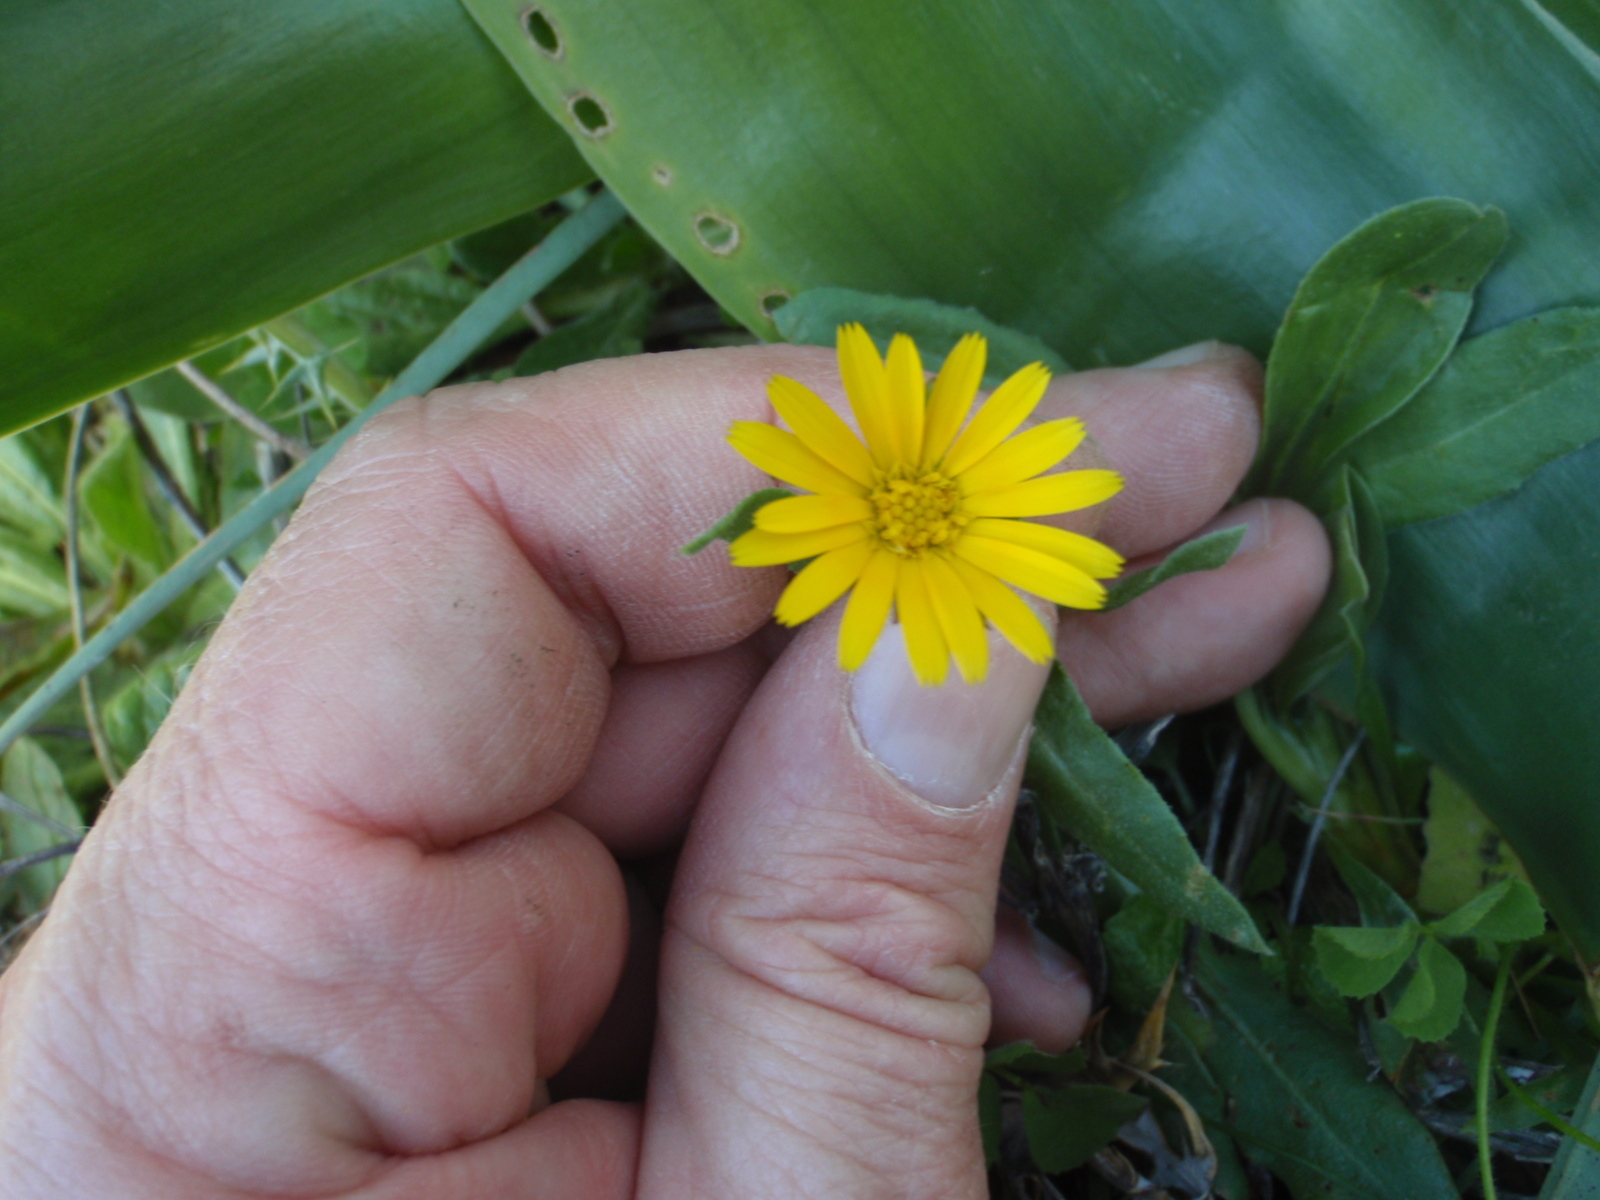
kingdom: Plantae
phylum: Tracheophyta
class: Magnoliopsida
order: Asterales
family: Asteraceae
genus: Calendula
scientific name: Calendula arvensis
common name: Field marigold
